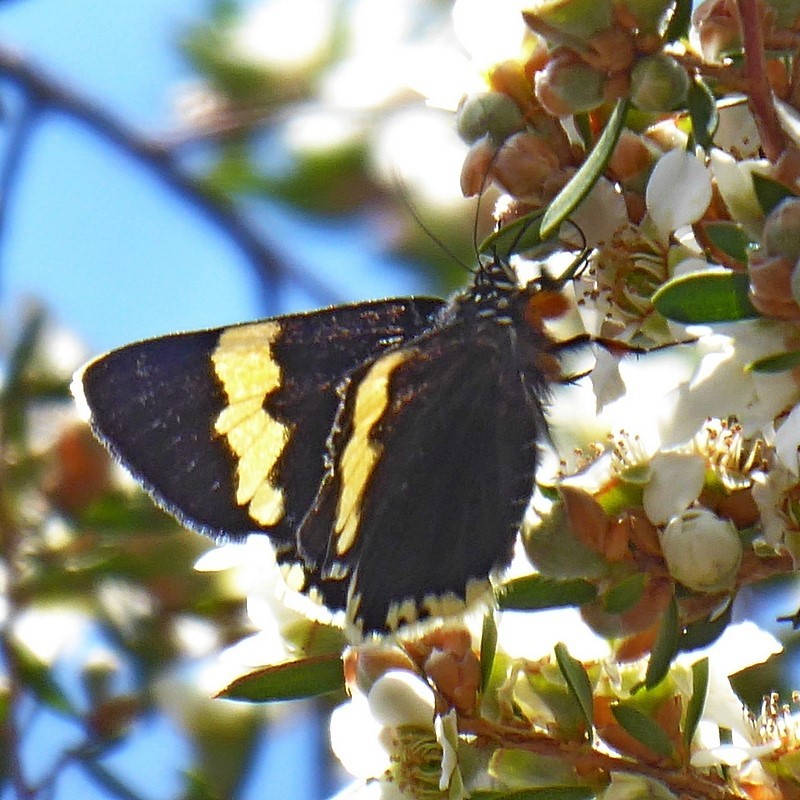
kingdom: Animalia
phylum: Arthropoda
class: Insecta
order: Lepidoptera
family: Noctuidae
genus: Eutrichopidia
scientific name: Eutrichopidia latinus
